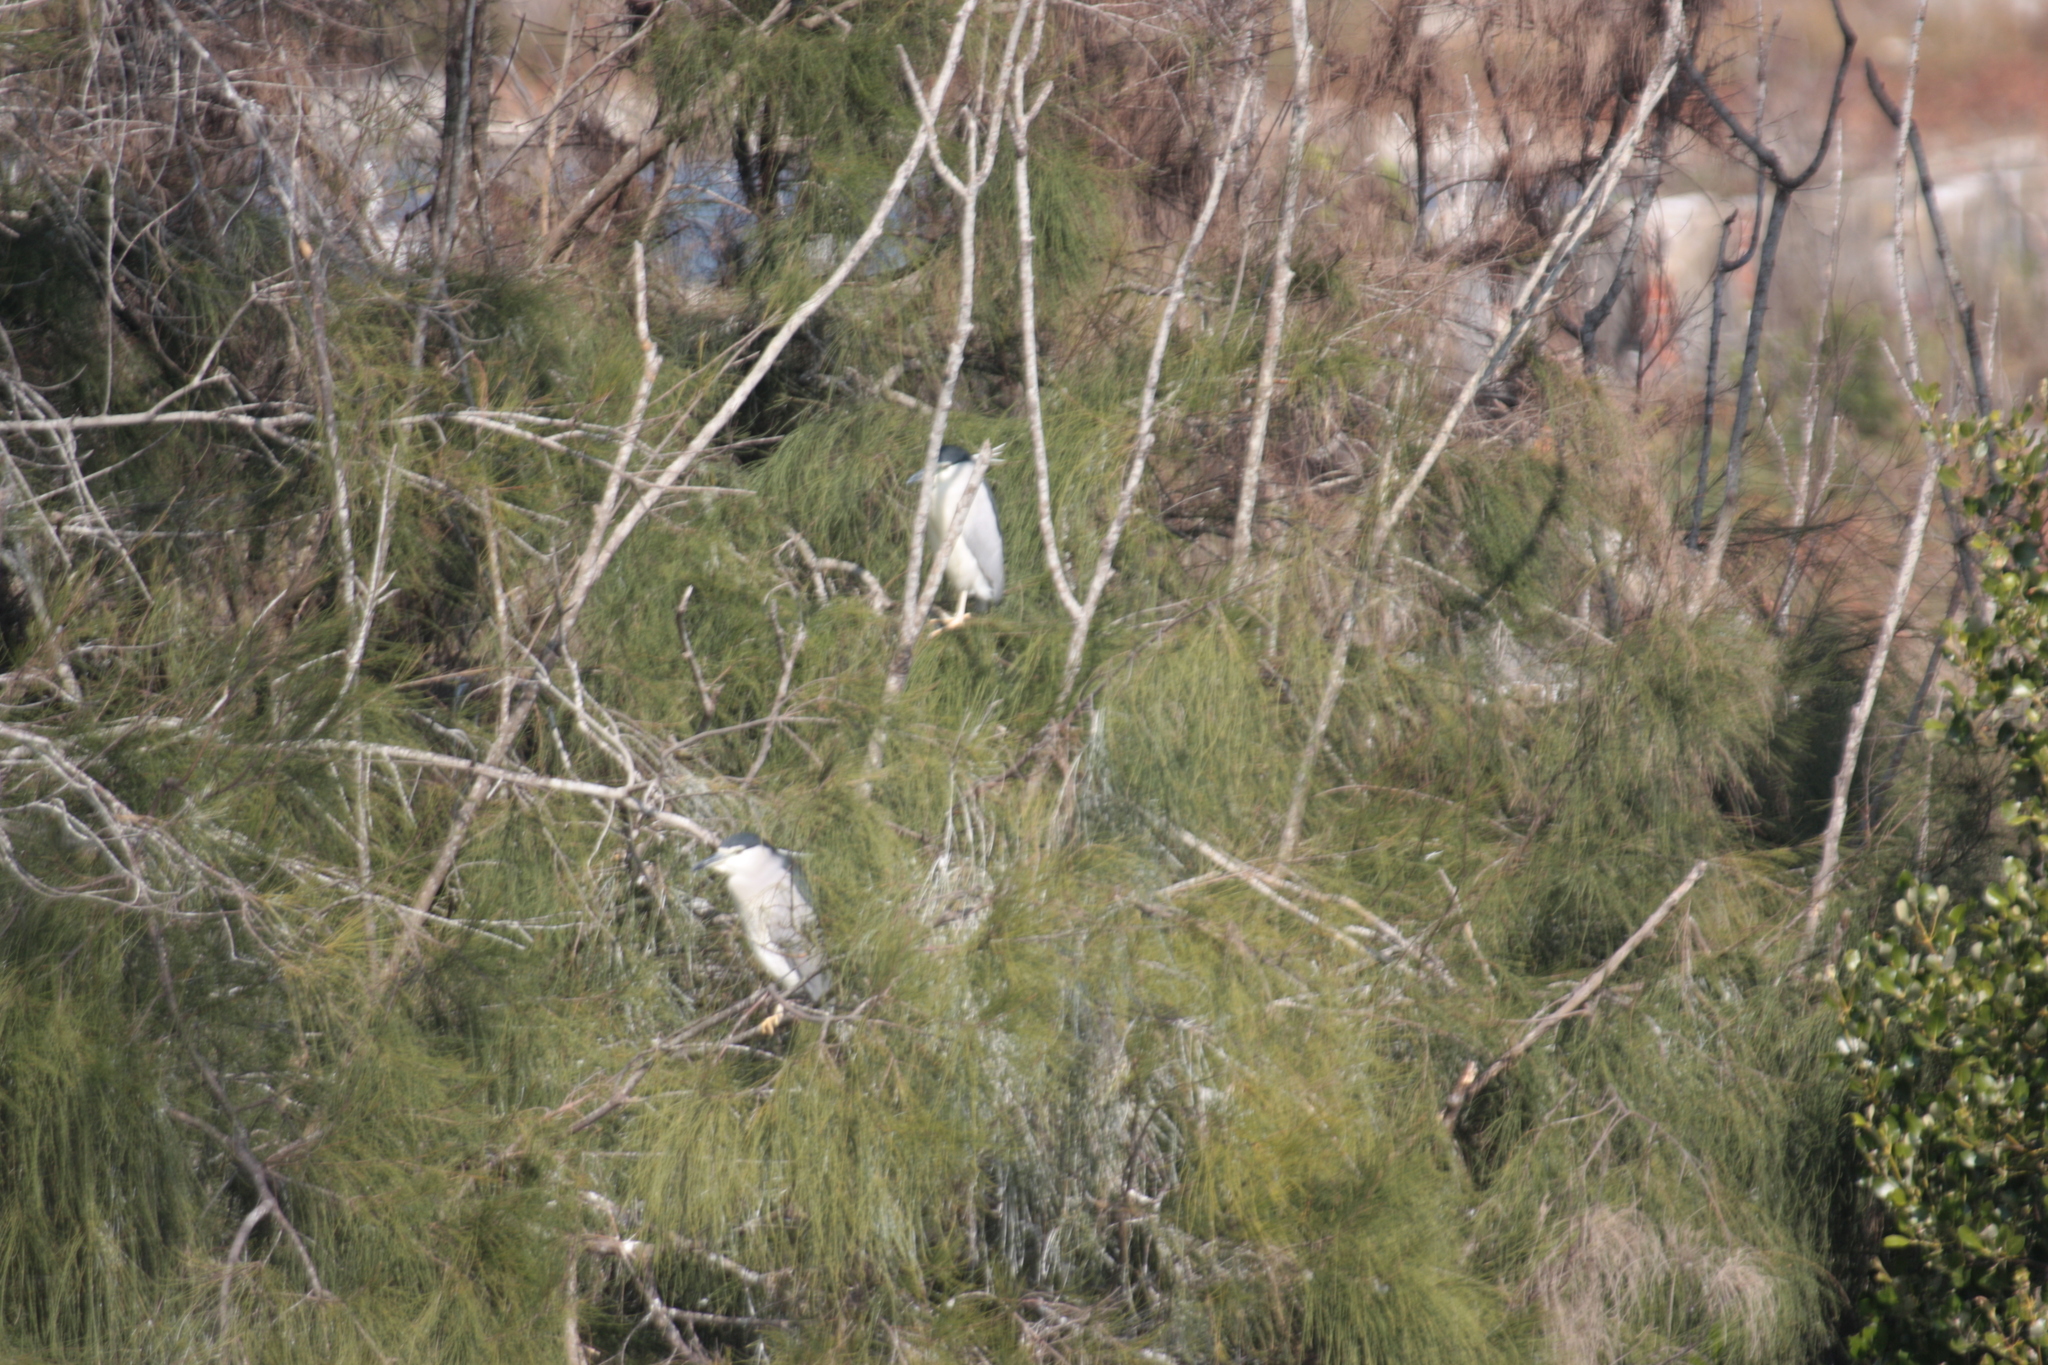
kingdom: Animalia
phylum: Chordata
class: Aves
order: Pelecaniformes
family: Ardeidae
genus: Nycticorax
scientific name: Nycticorax nycticorax
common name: Black-crowned night heron
